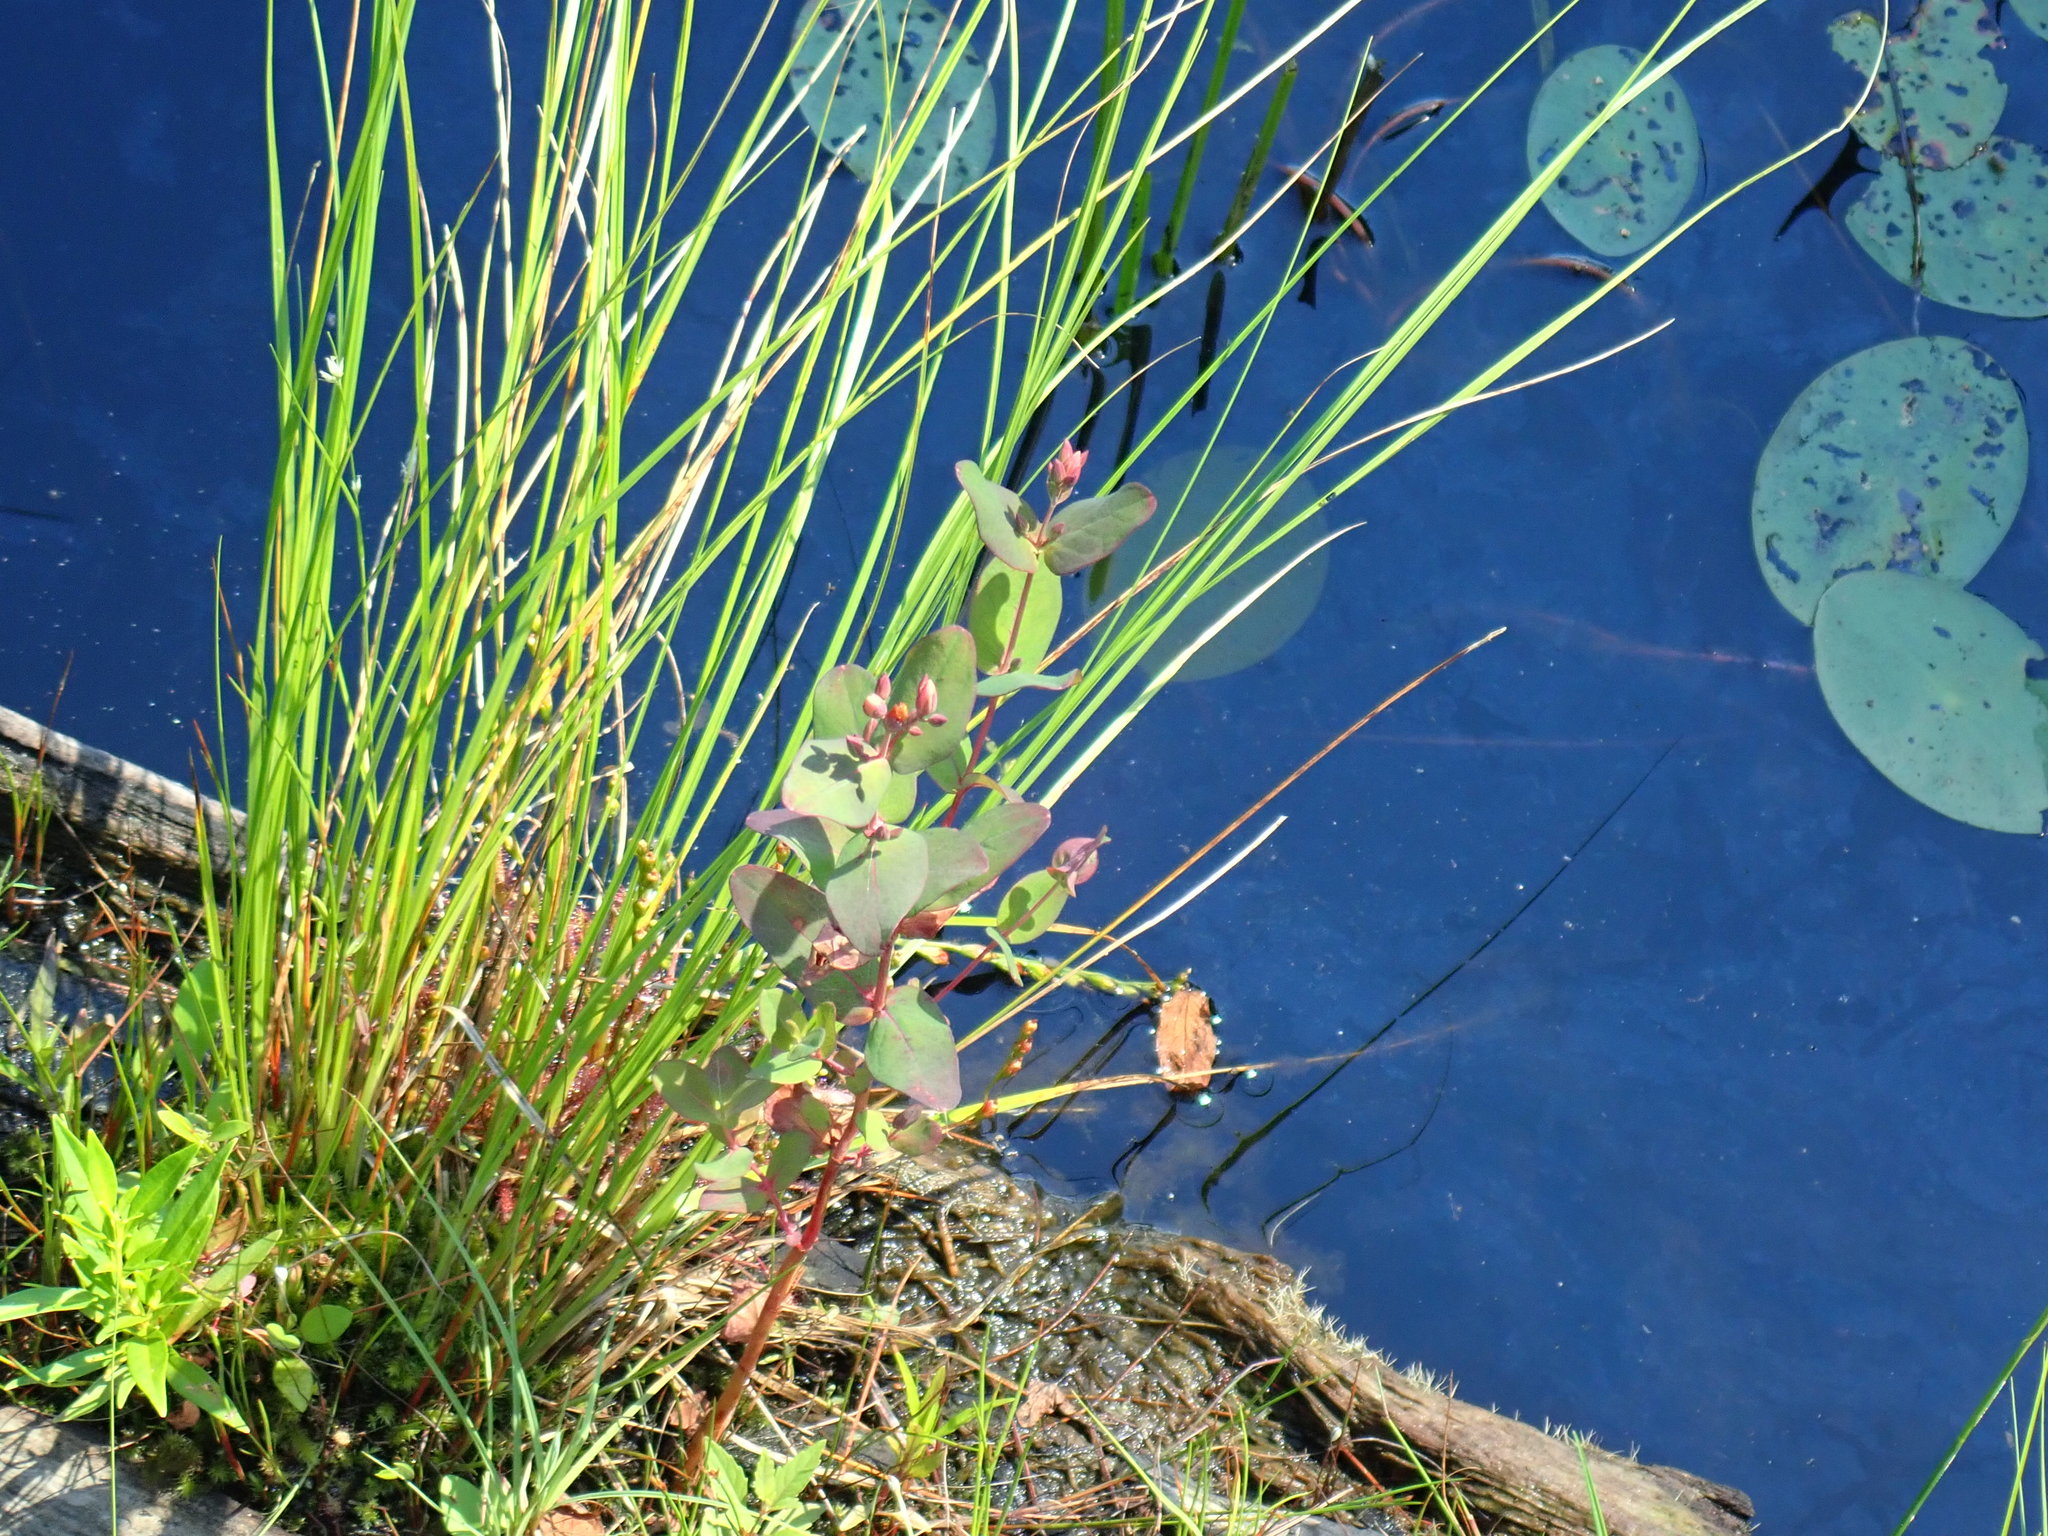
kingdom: Plantae
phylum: Tracheophyta
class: Magnoliopsida
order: Malpighiales
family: Hypericaceae
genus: Triadenum
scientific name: Triadenum virginicum
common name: Marsh st. john's-wort
